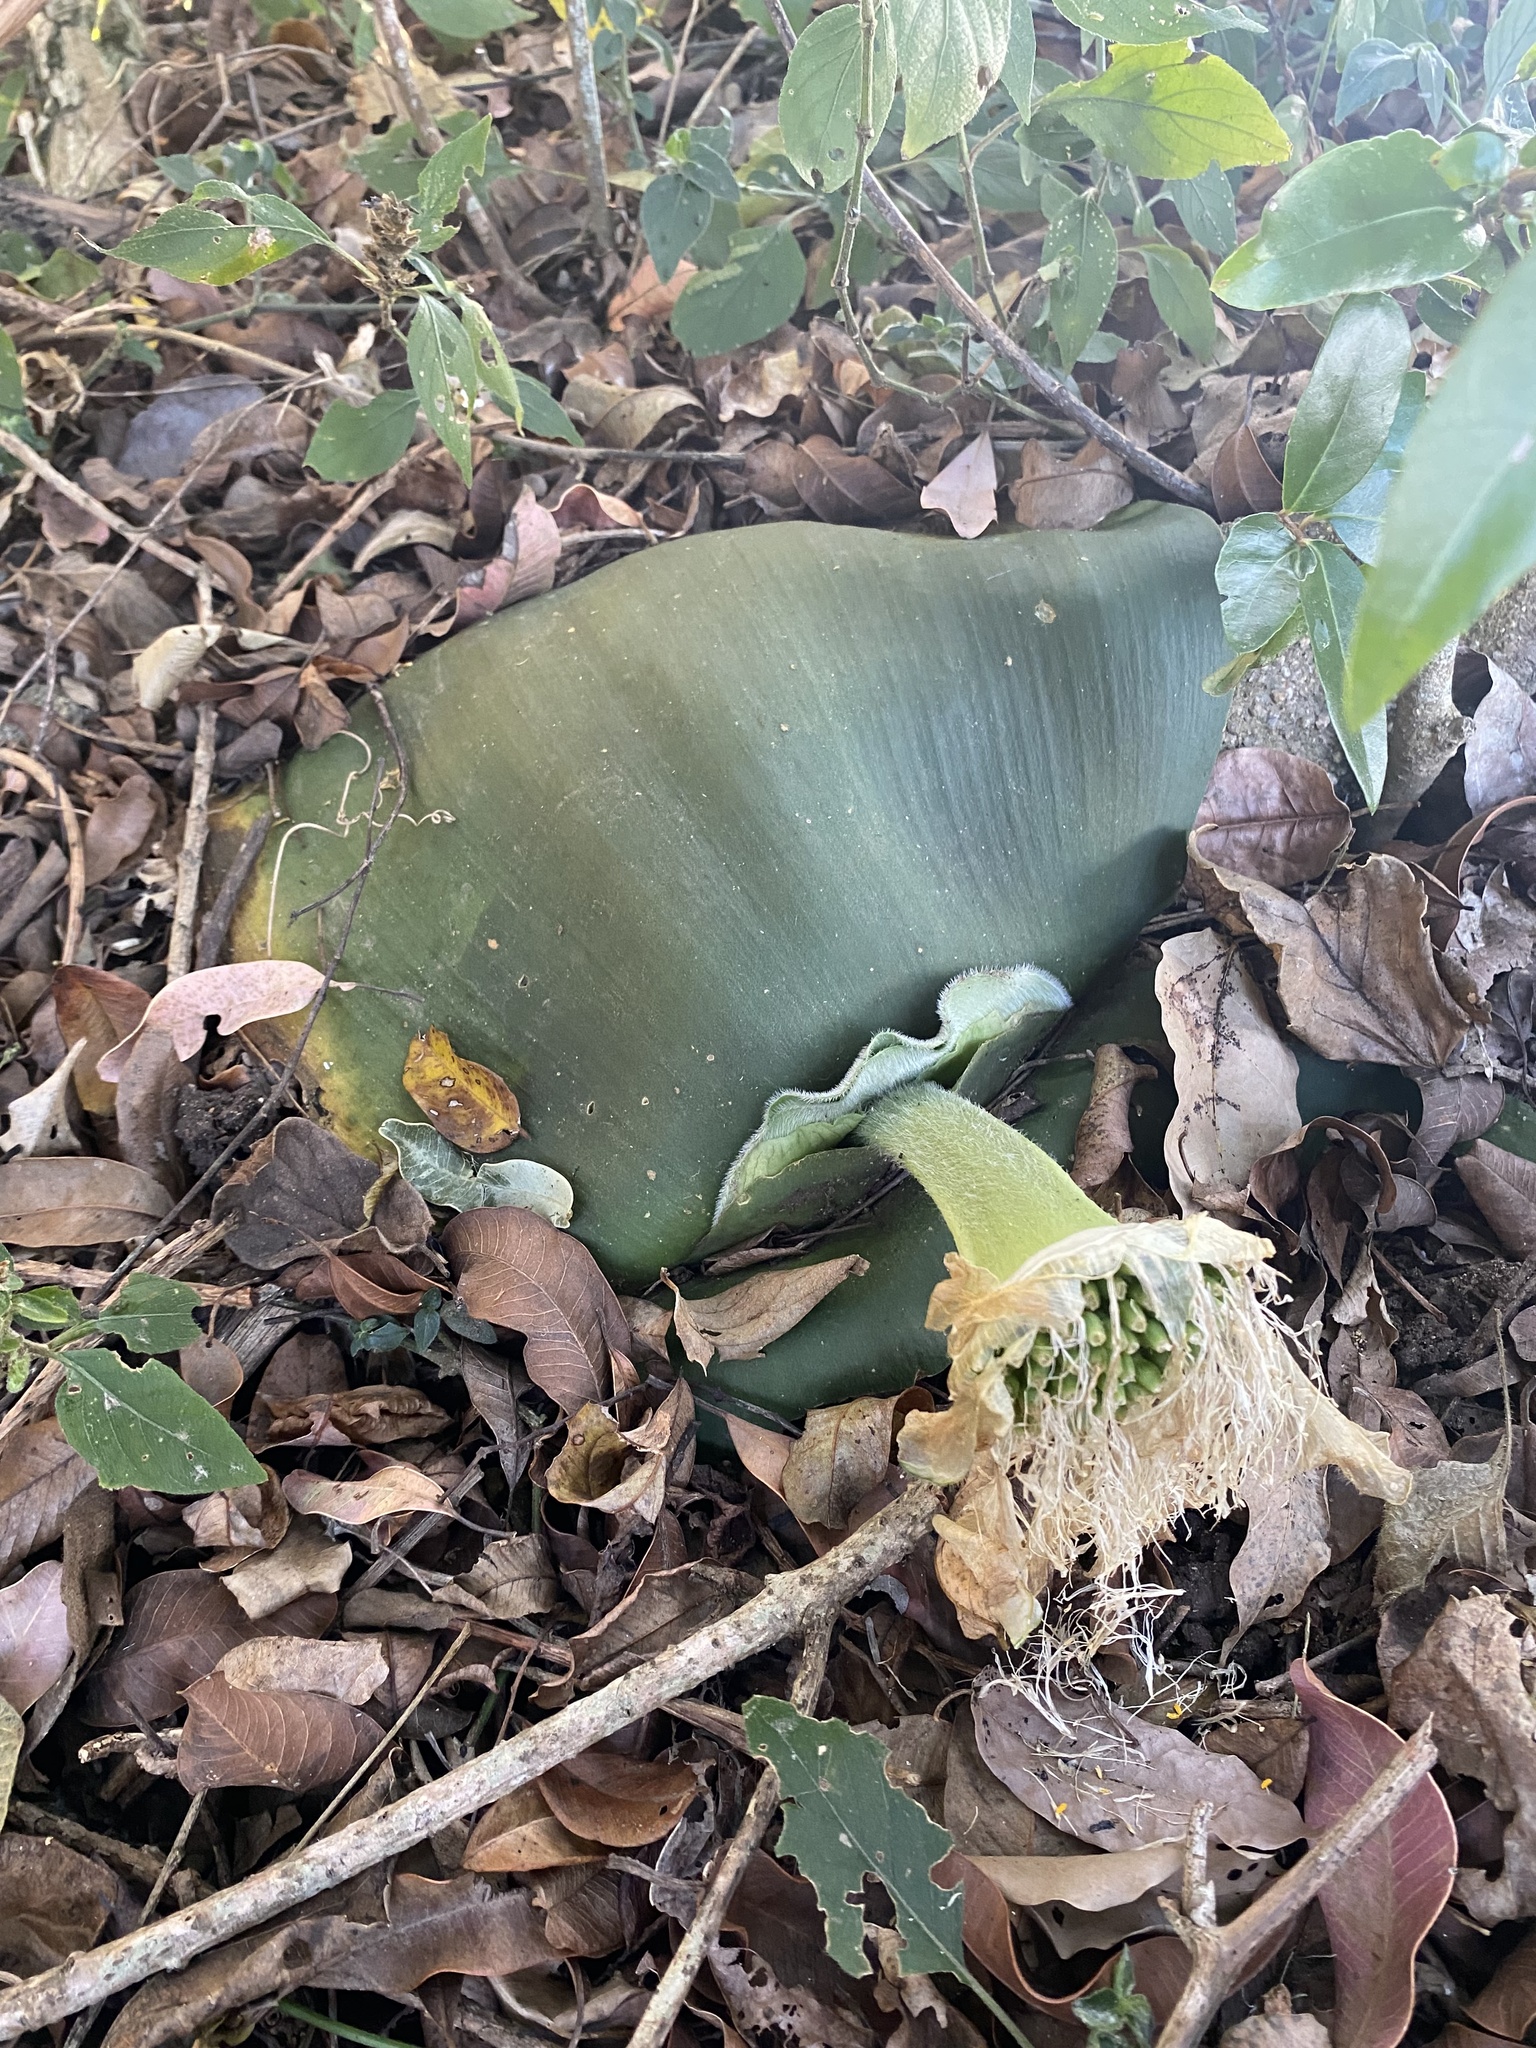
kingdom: Plantae
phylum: Tracheophyta
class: Liliopsida
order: Asparagales
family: Amaryllidaceae
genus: Haemanthus
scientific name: Haemanthus deformis
